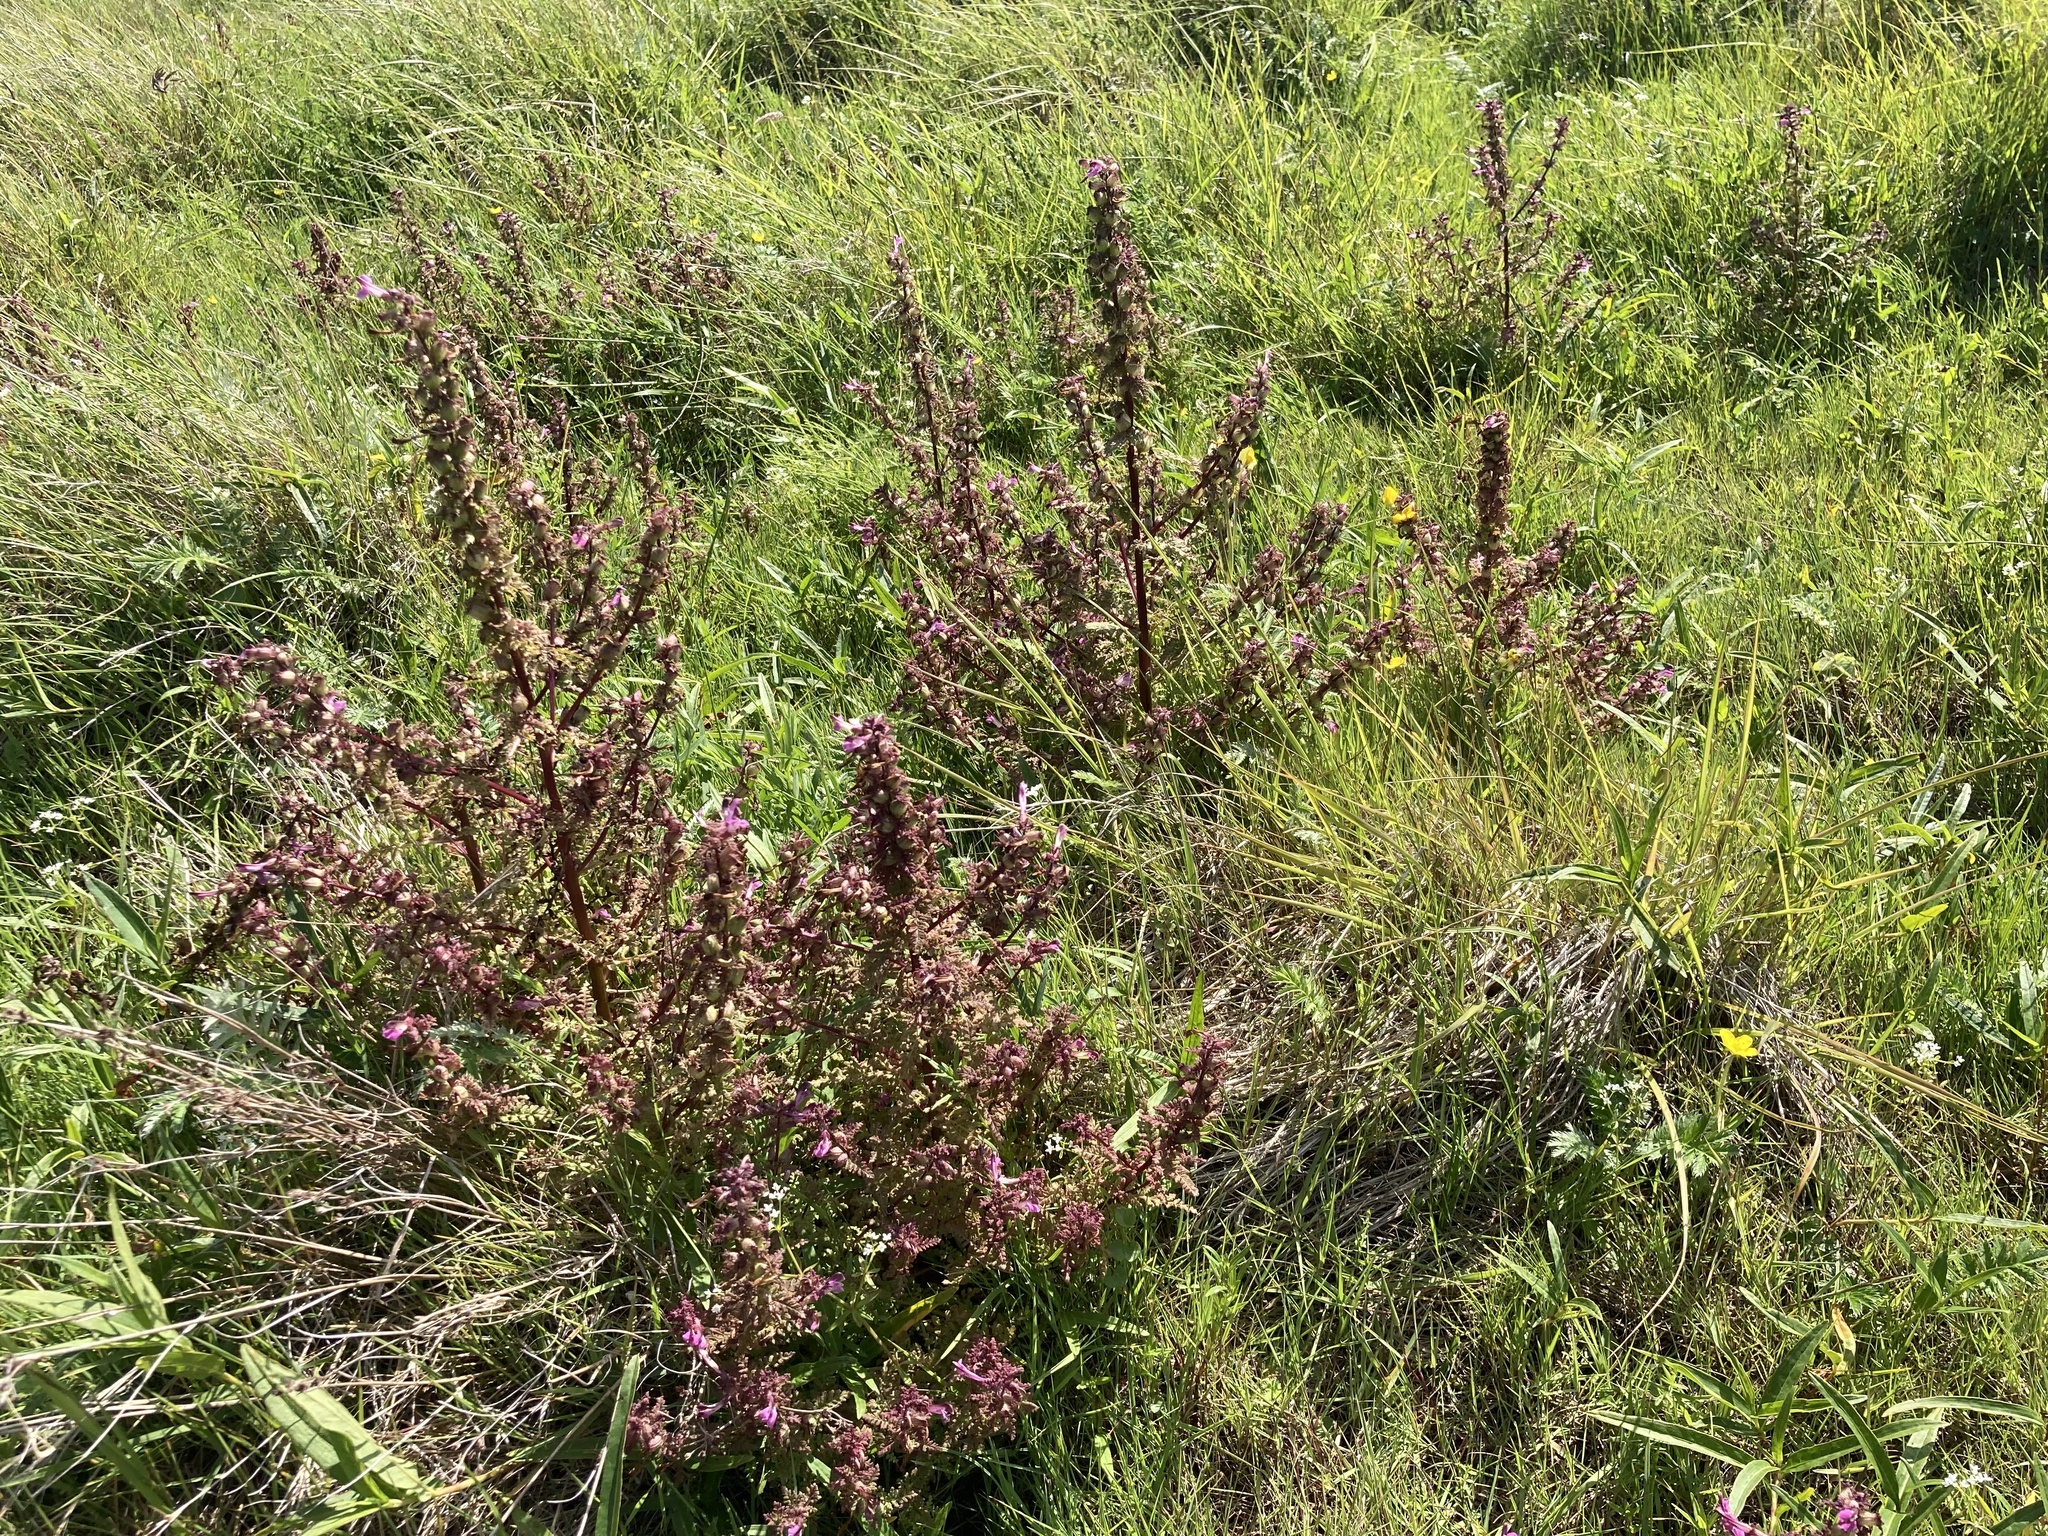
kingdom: Plantae
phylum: Tracheophyta
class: Magnoliopsida
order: Lamiales
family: Orobanchaceae
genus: Pedicularis
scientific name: Pedicularis palustris
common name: Marsh lousewort
